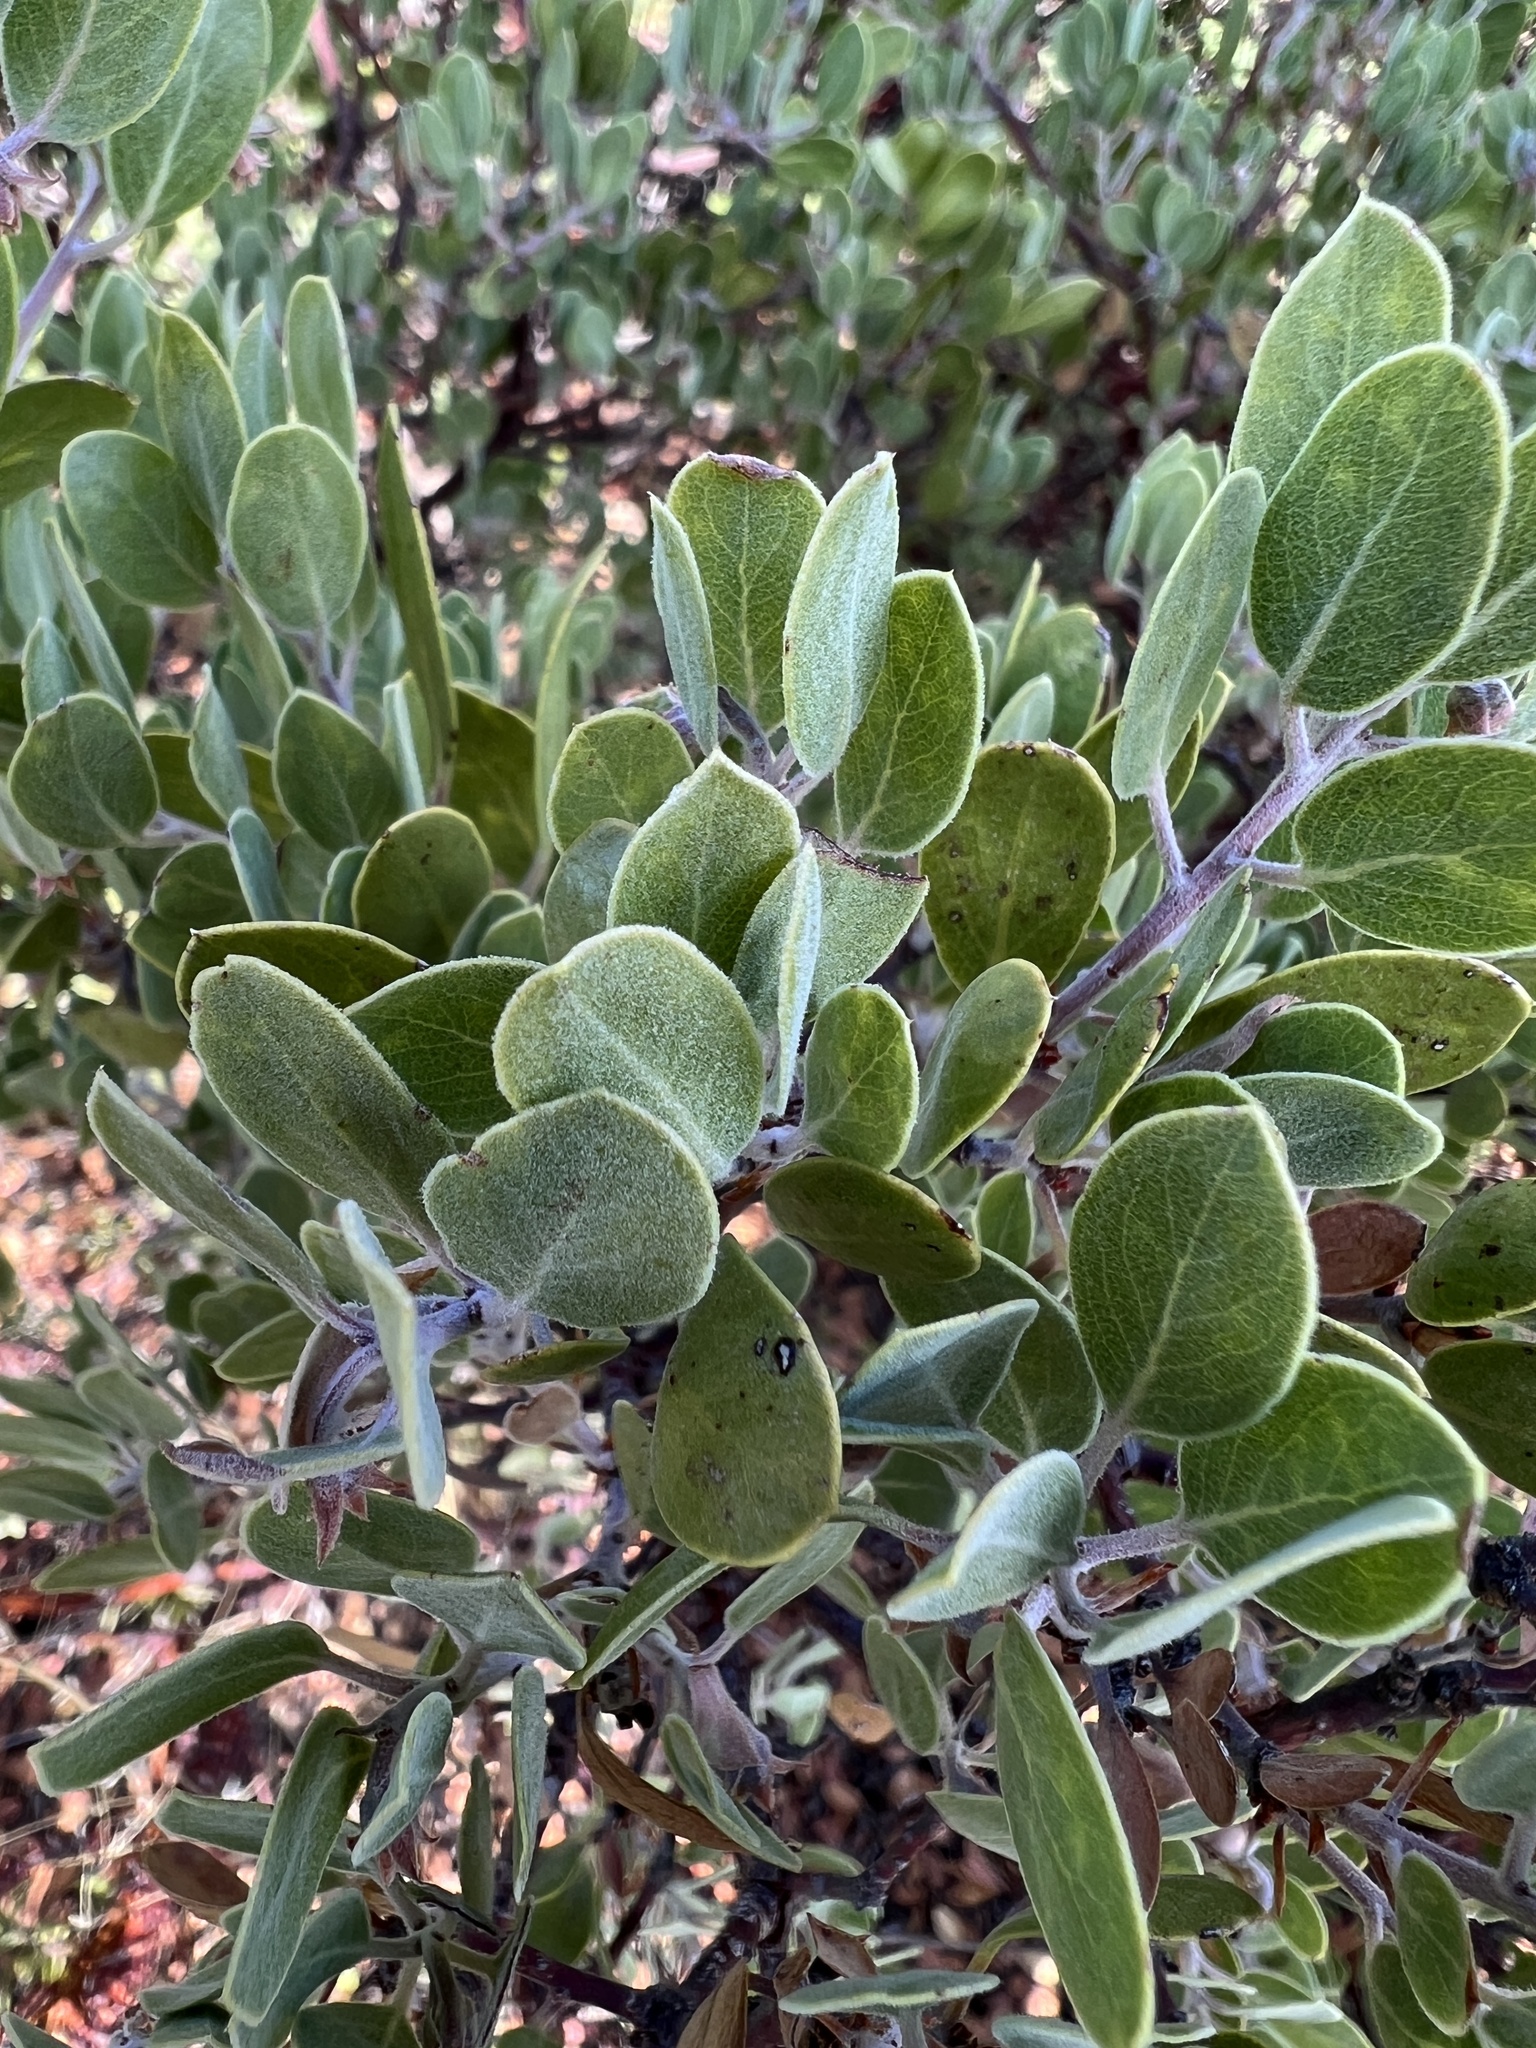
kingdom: Plantae
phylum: Tracheophyta
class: Magnoliopsida
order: Ericales
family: Ericaceae
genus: Arctostaphylos
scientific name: Arctostaphylos pungens
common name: Mexican manzanita
